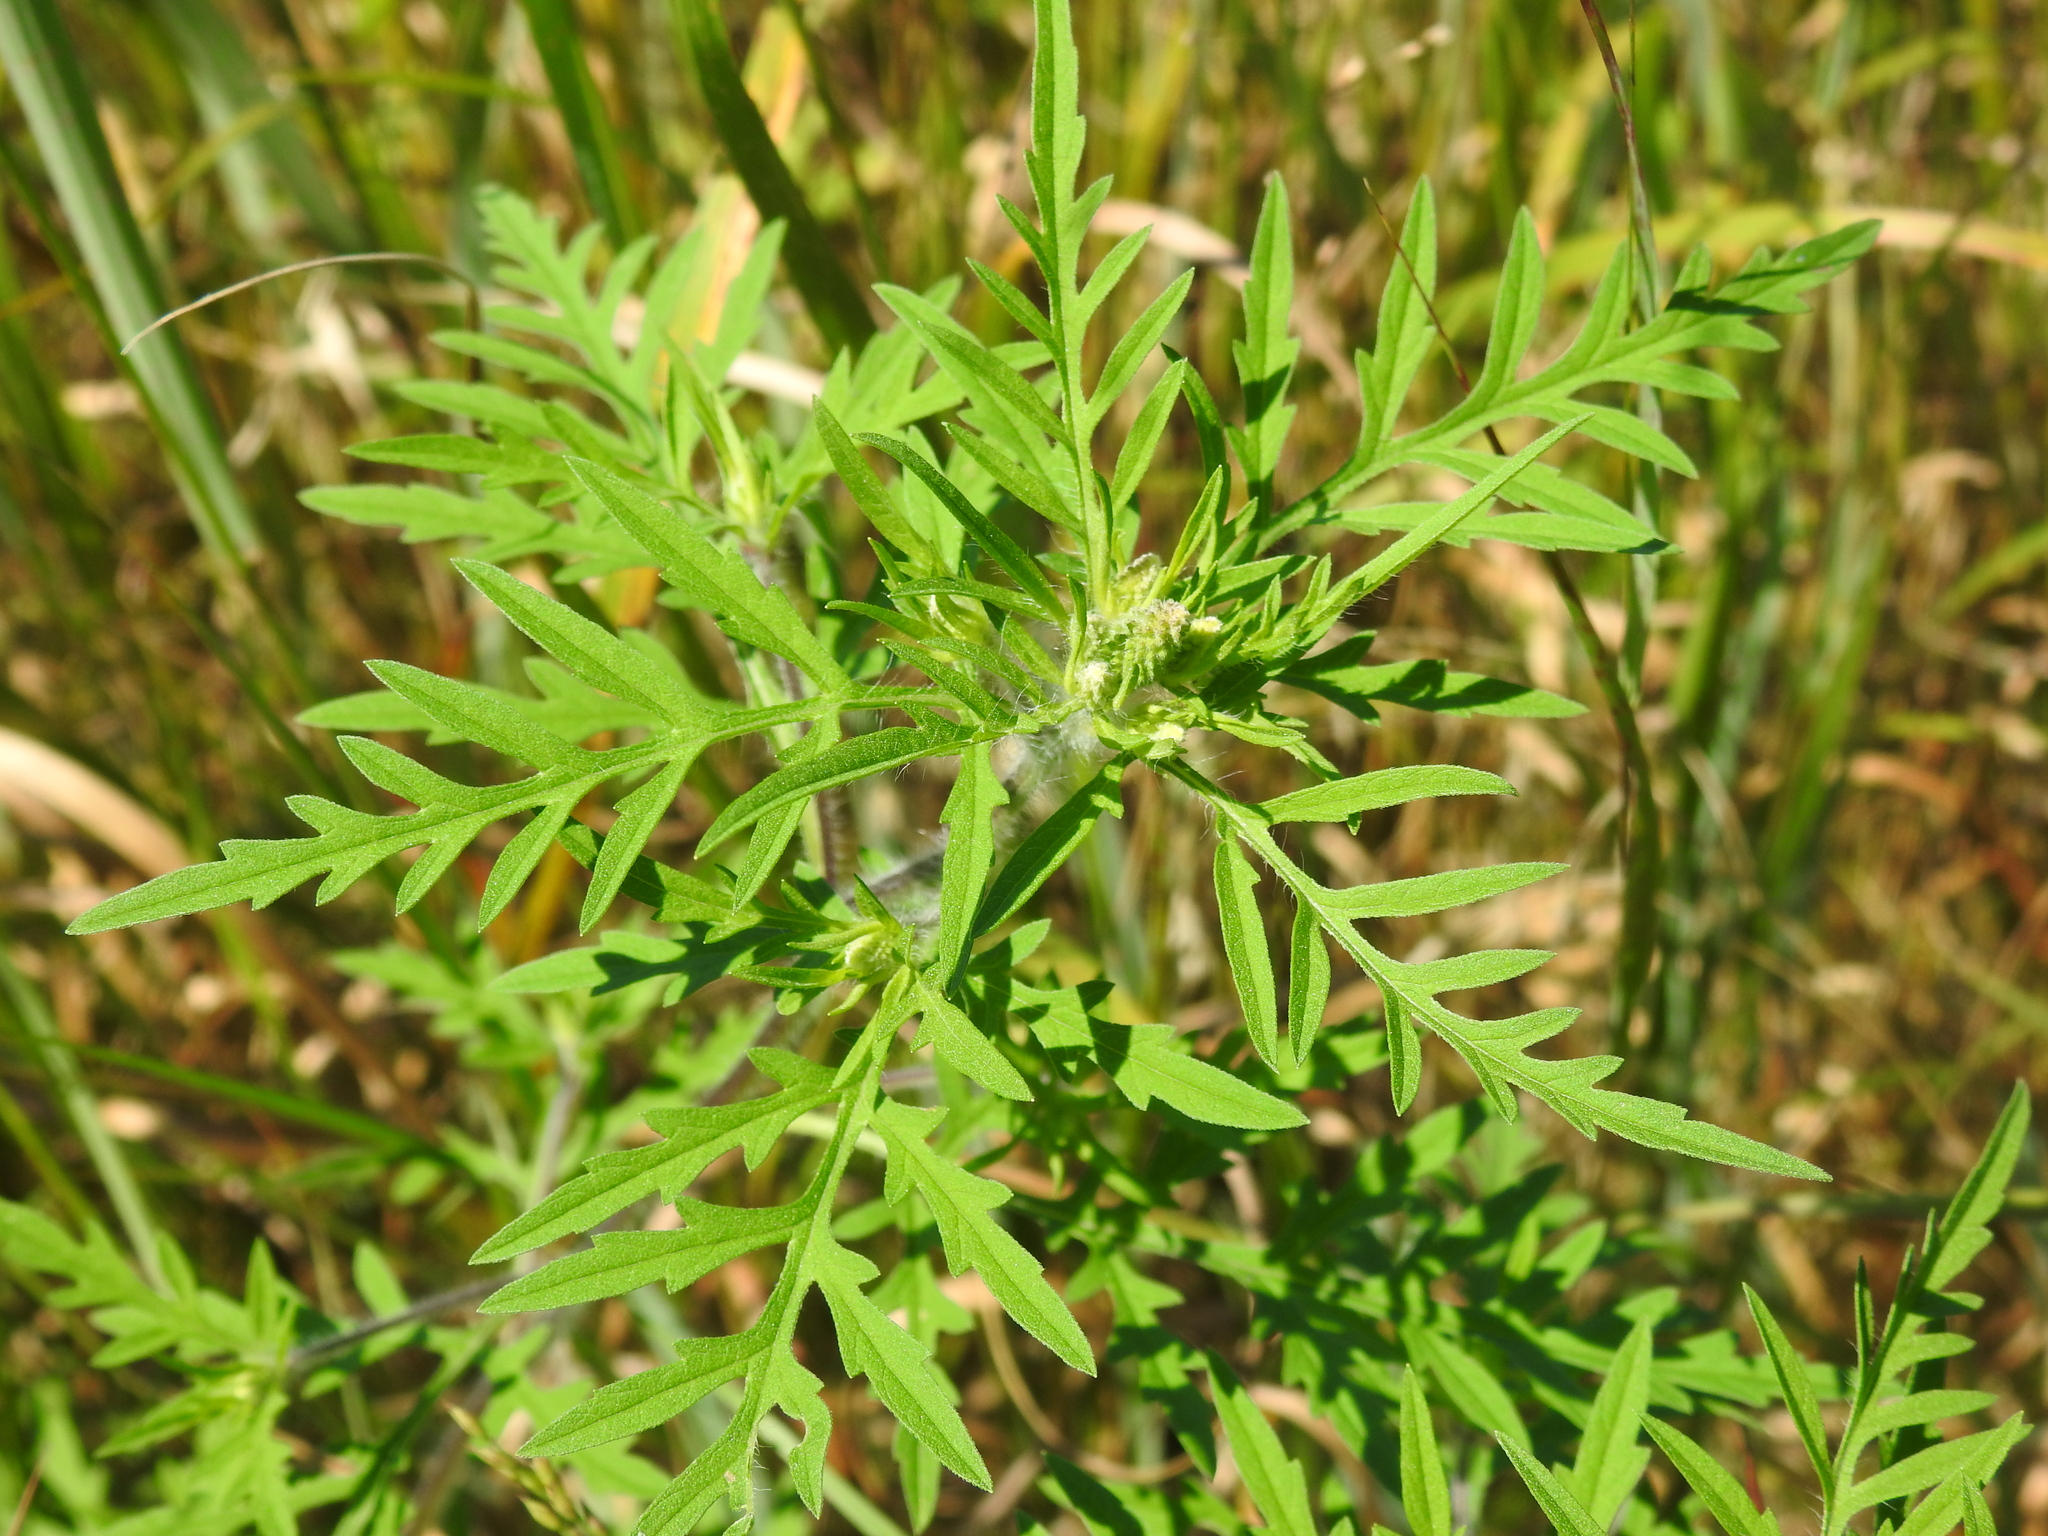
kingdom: Plantae
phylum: Tracheophyta
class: Magnoliopsida
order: Asterales
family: Asteraceae
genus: Ambrosia
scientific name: Ambrosia artemisiifolia
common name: Annual ragweed
